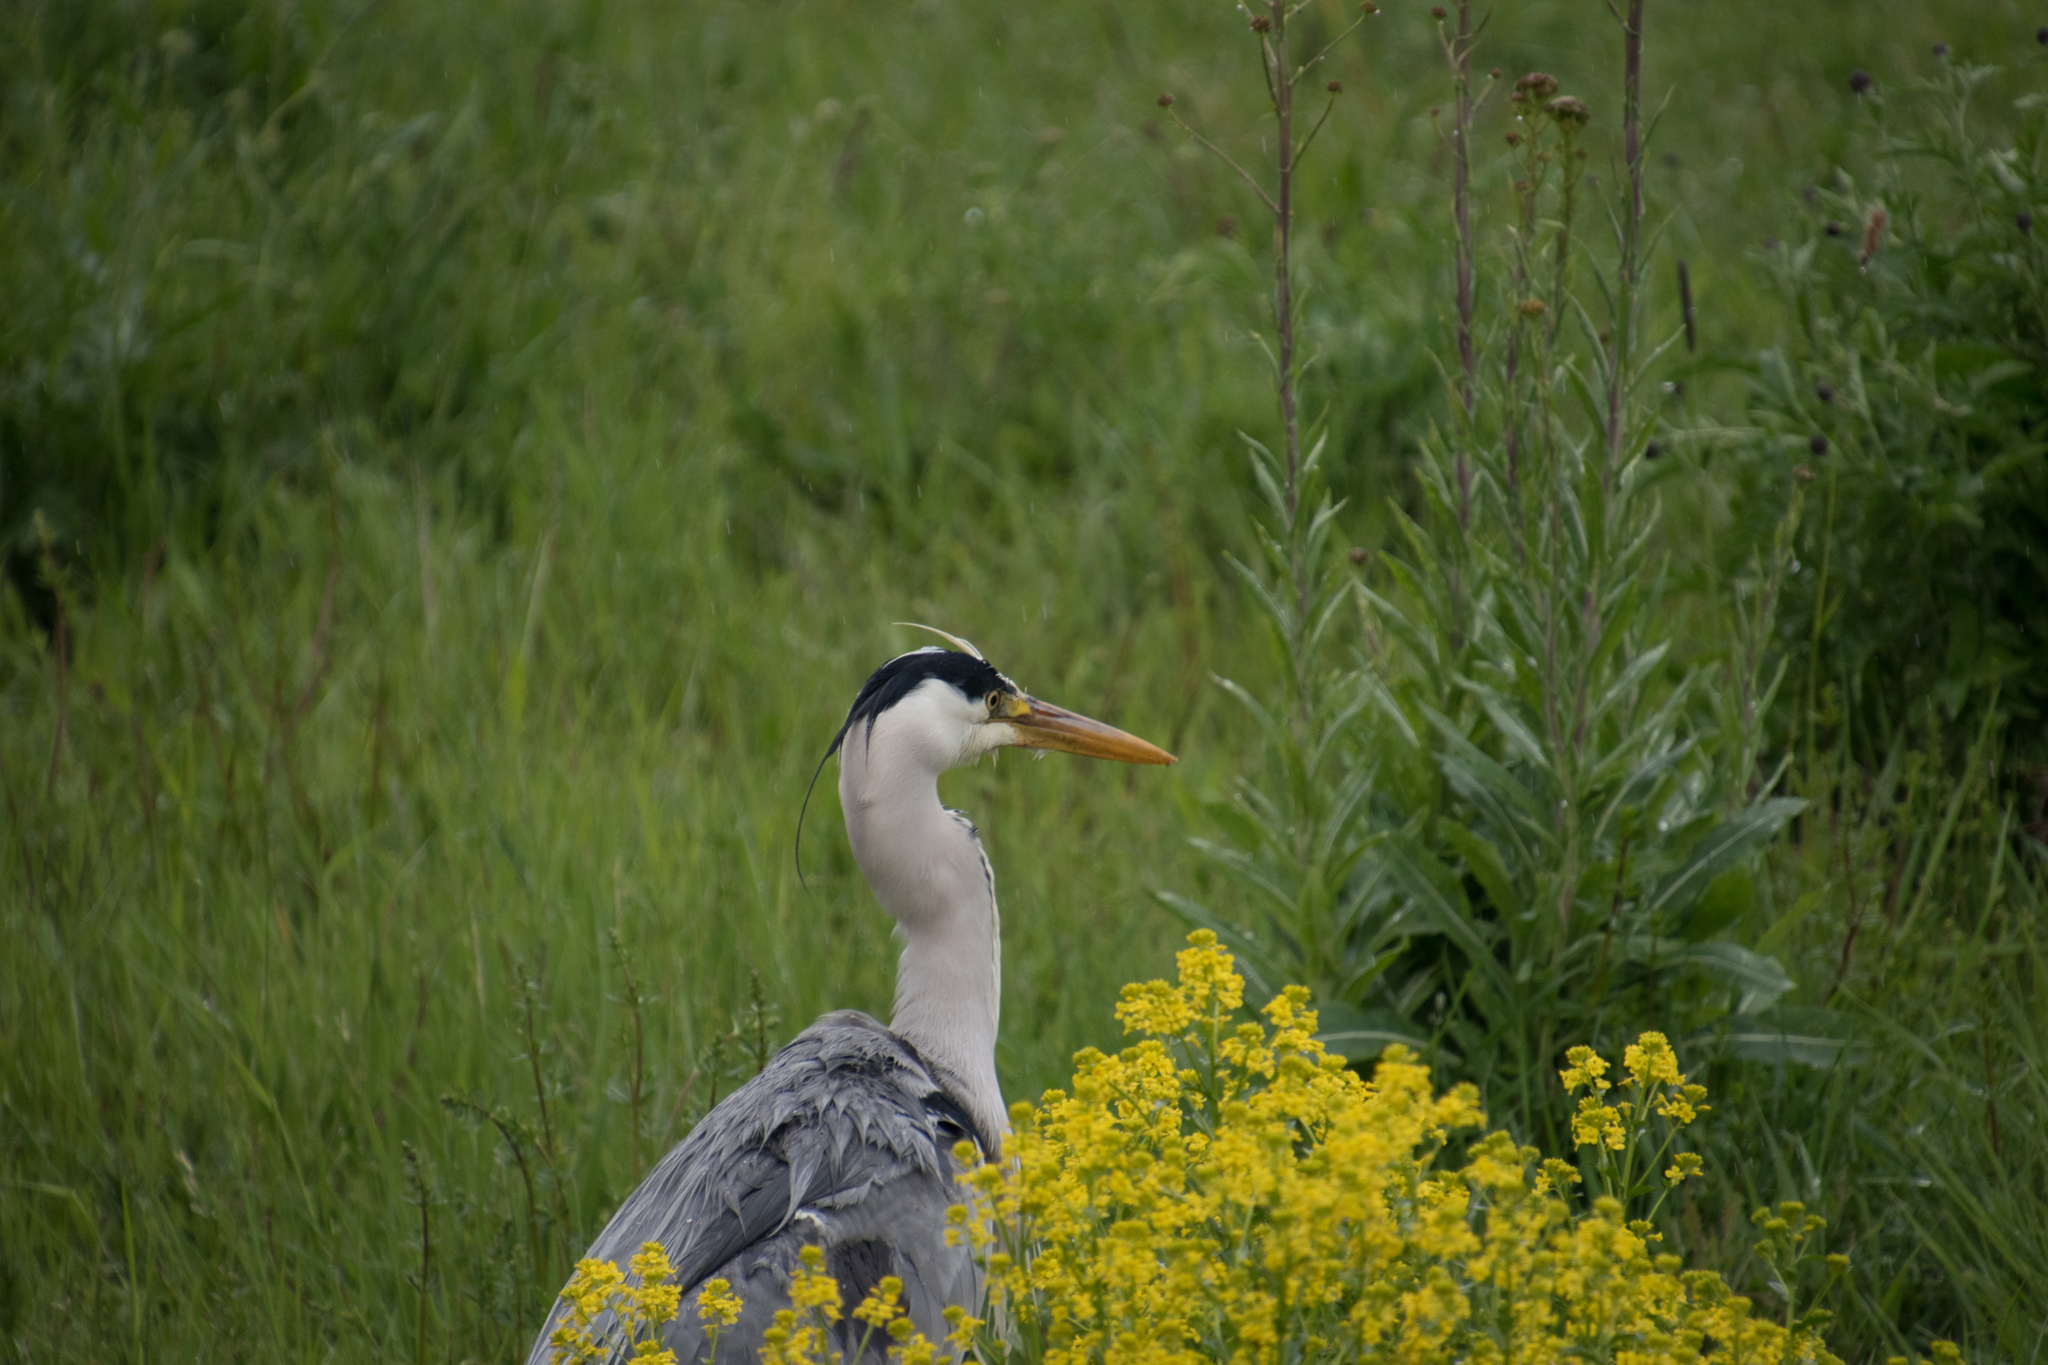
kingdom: Animalia
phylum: Chordata
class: Aves
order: Pelecaniformes
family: Ardeidae
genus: Ardea
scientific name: Ardea cinerea
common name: Grey heron
